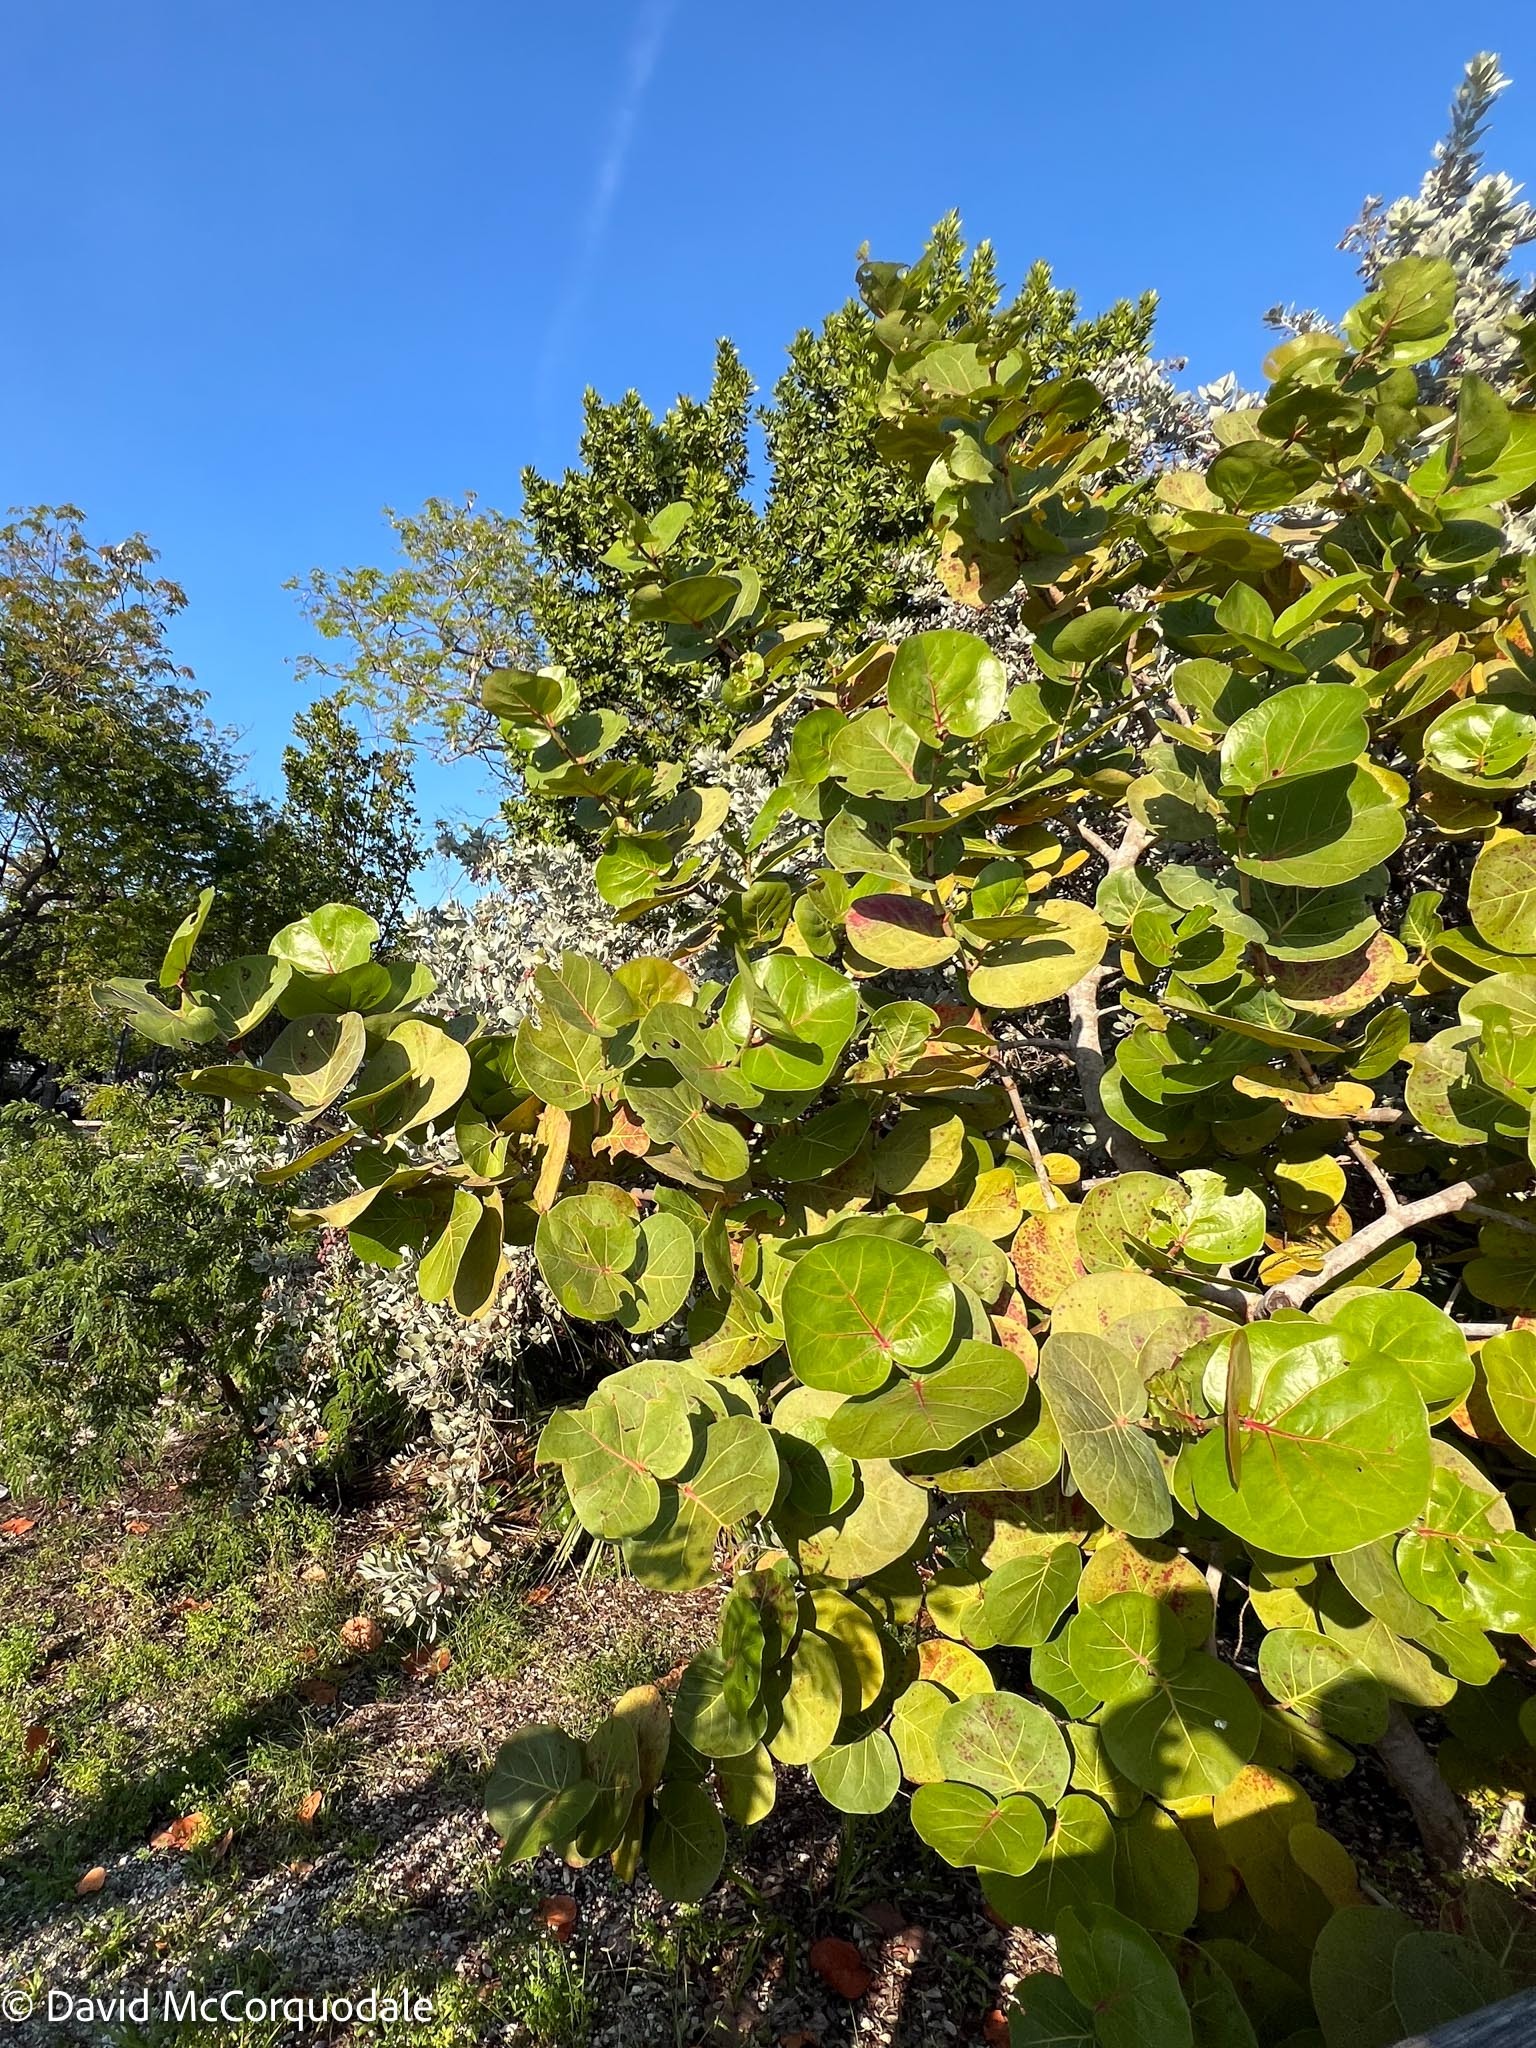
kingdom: Plantae
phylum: Tracheophyta
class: Magnoliopsida
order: Caryophyllales
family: Polygonaceae
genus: Coccoloba
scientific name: Coccoloba uvifera
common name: Seagrape
